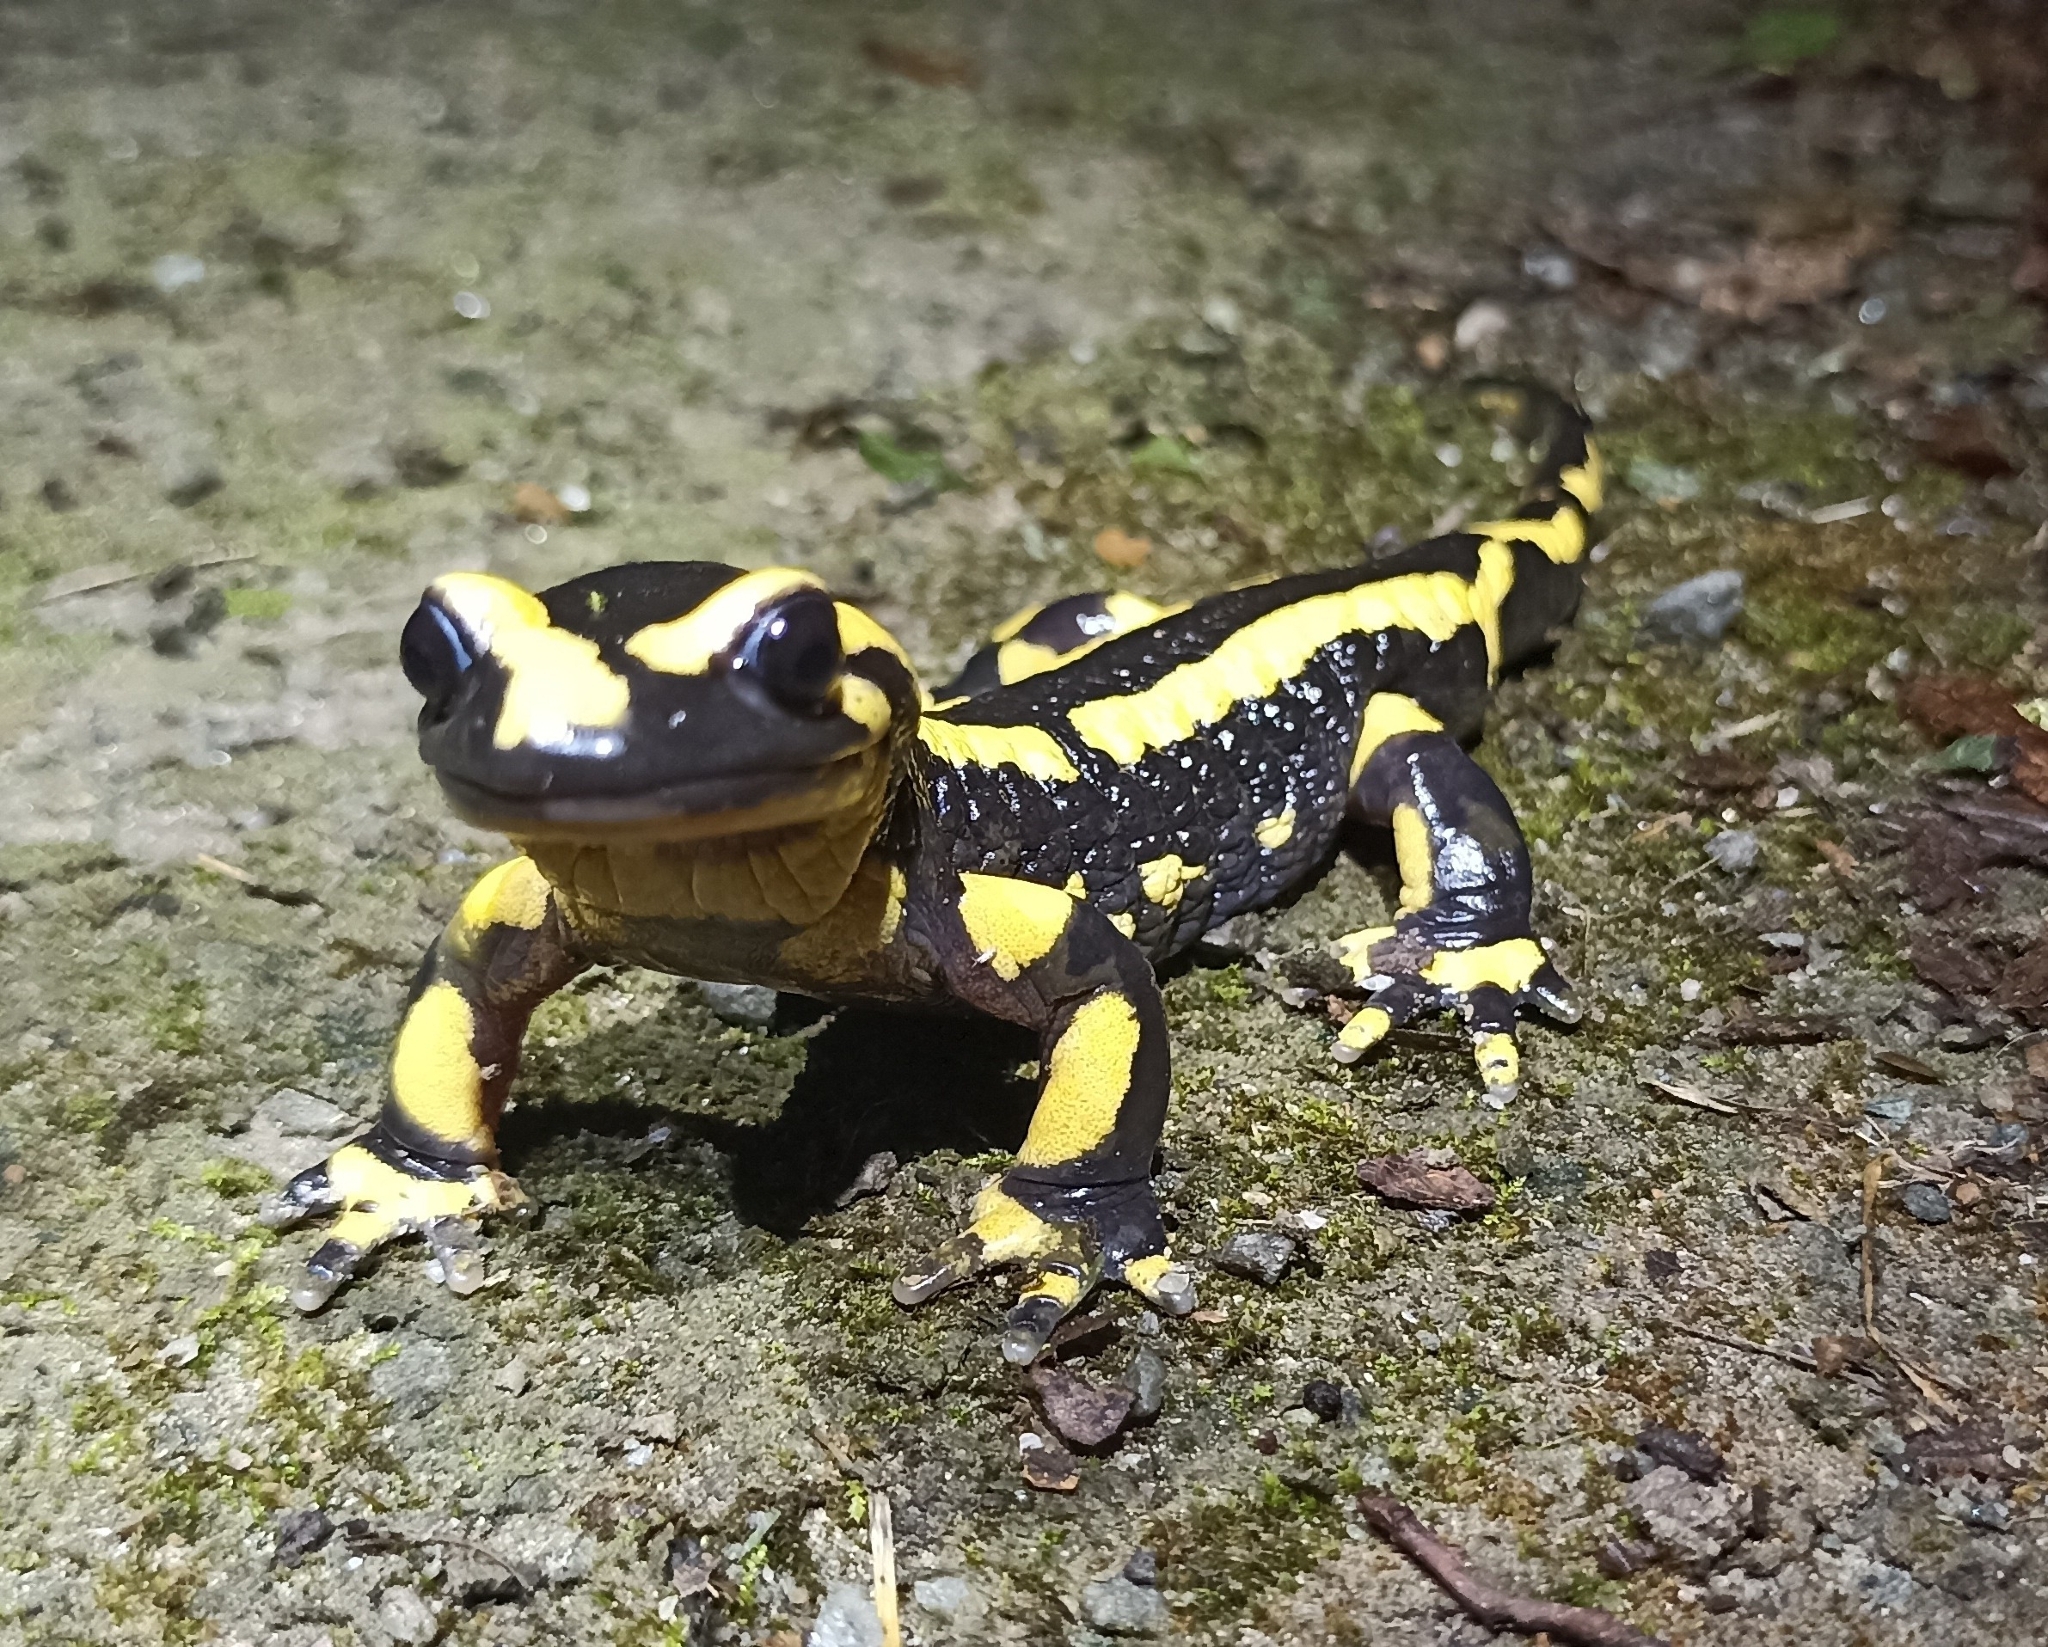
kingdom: Animalia
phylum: Chordata
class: Amphibia
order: Caudata
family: Salamandridae
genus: Salamandra
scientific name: Salamandra salamandra
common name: Fire salamander
